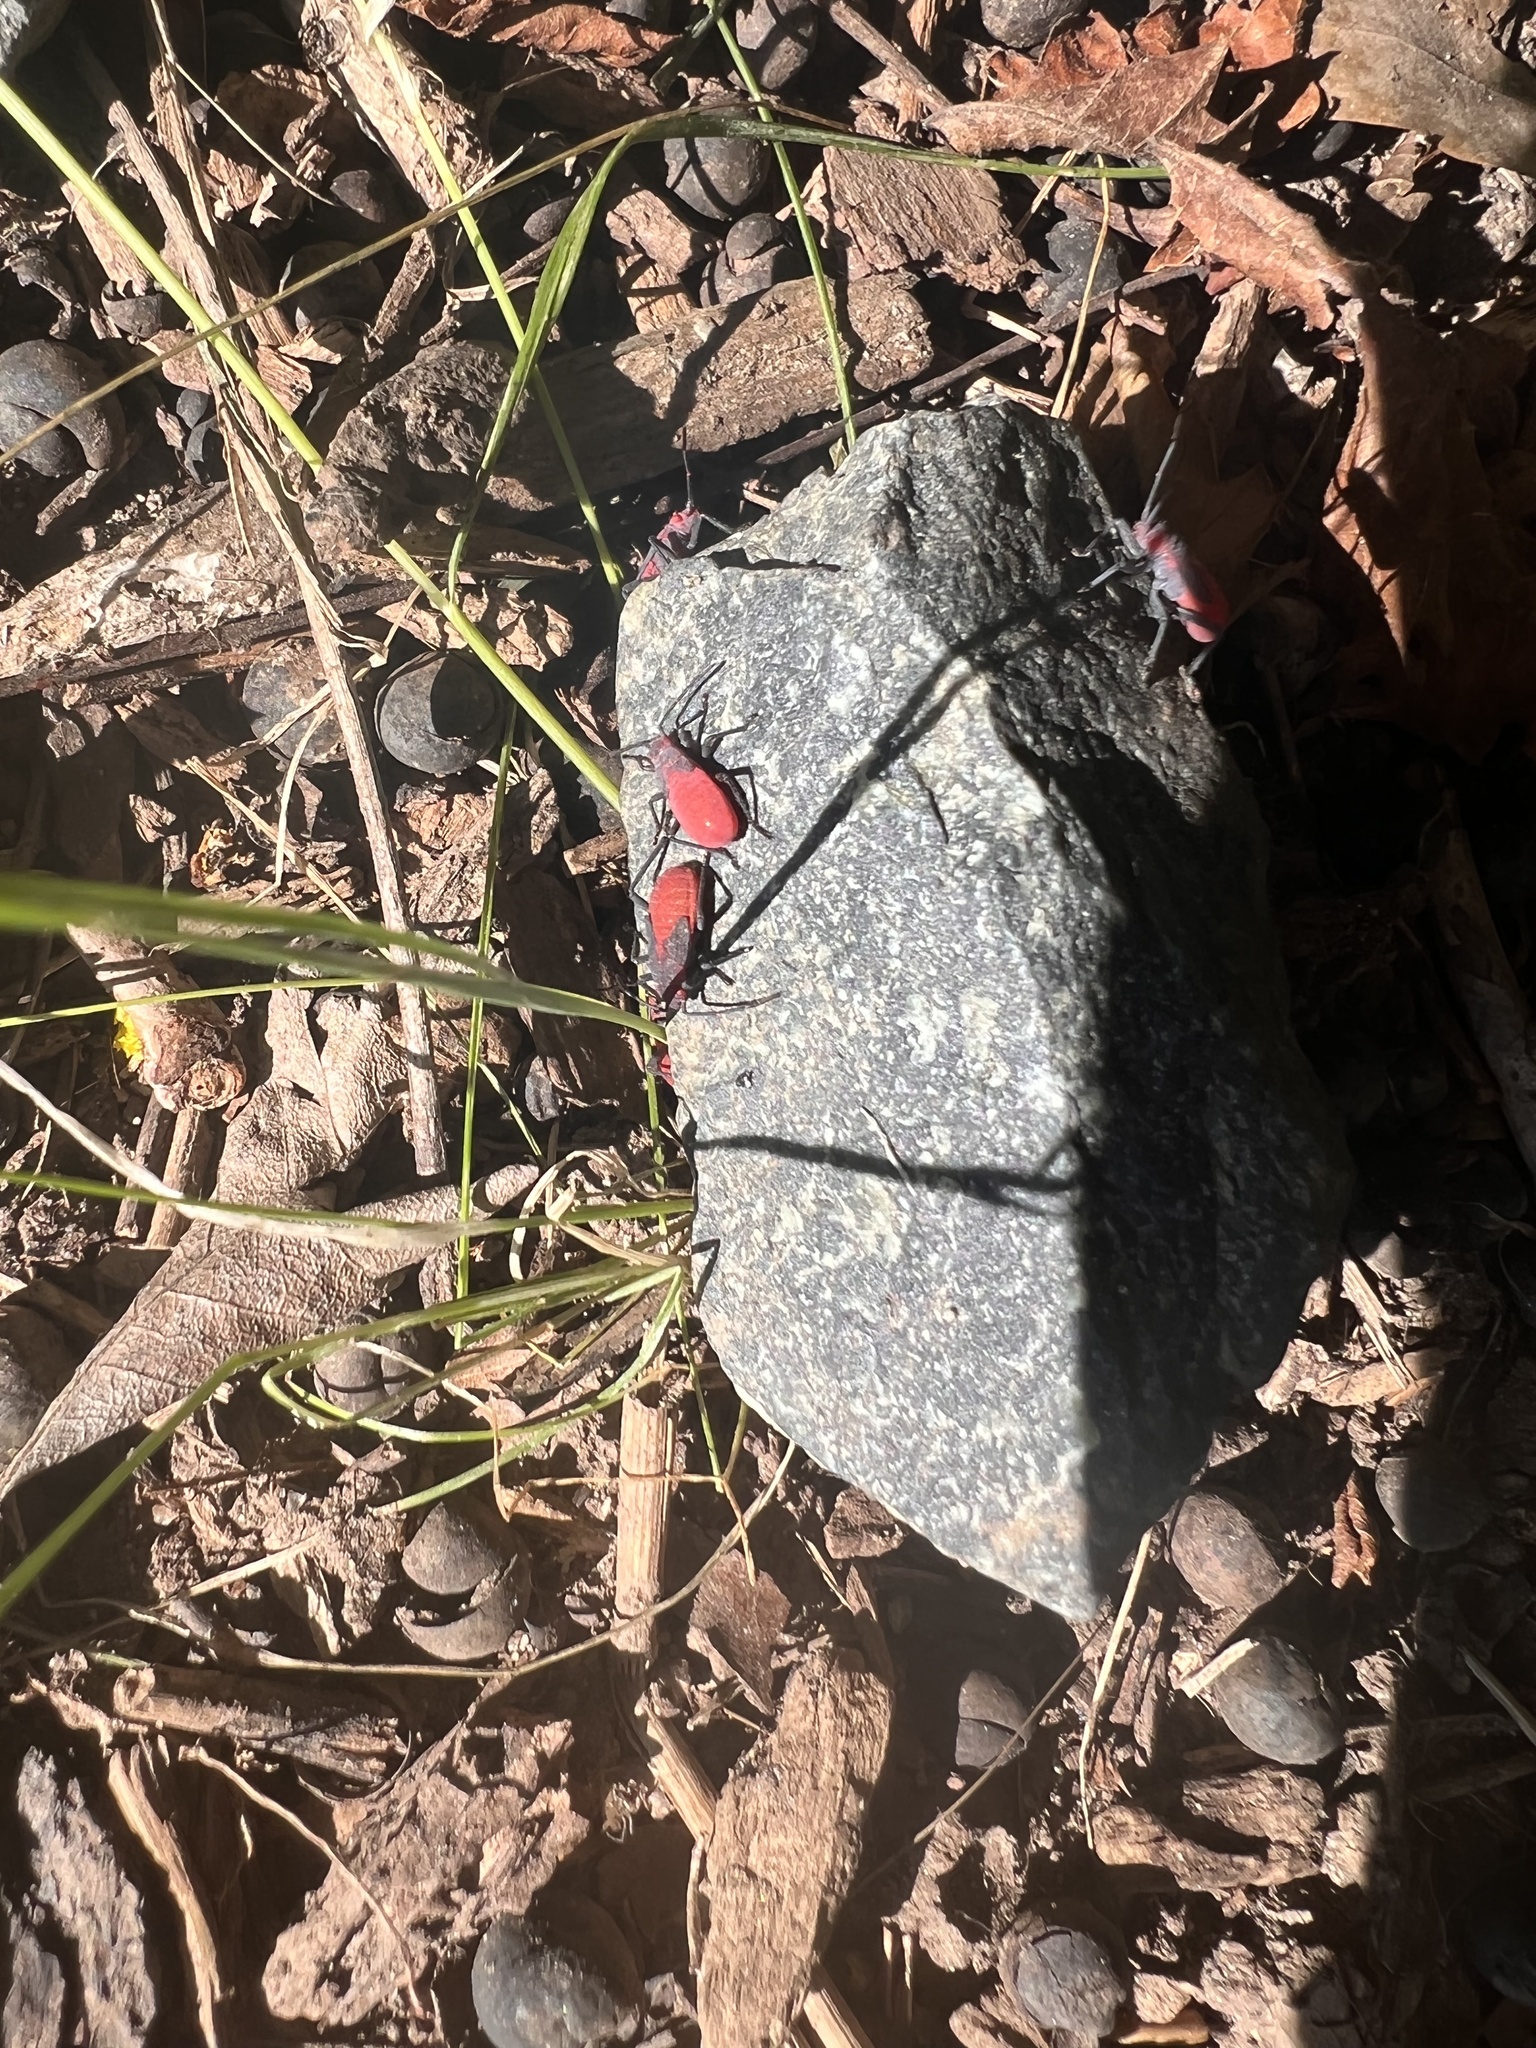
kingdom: Animalia
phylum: Arthropoda
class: Insecta
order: Hemiptera
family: Rhopalidae
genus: Jadera
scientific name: Jadera haematoloma
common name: Red-shouldered bug
